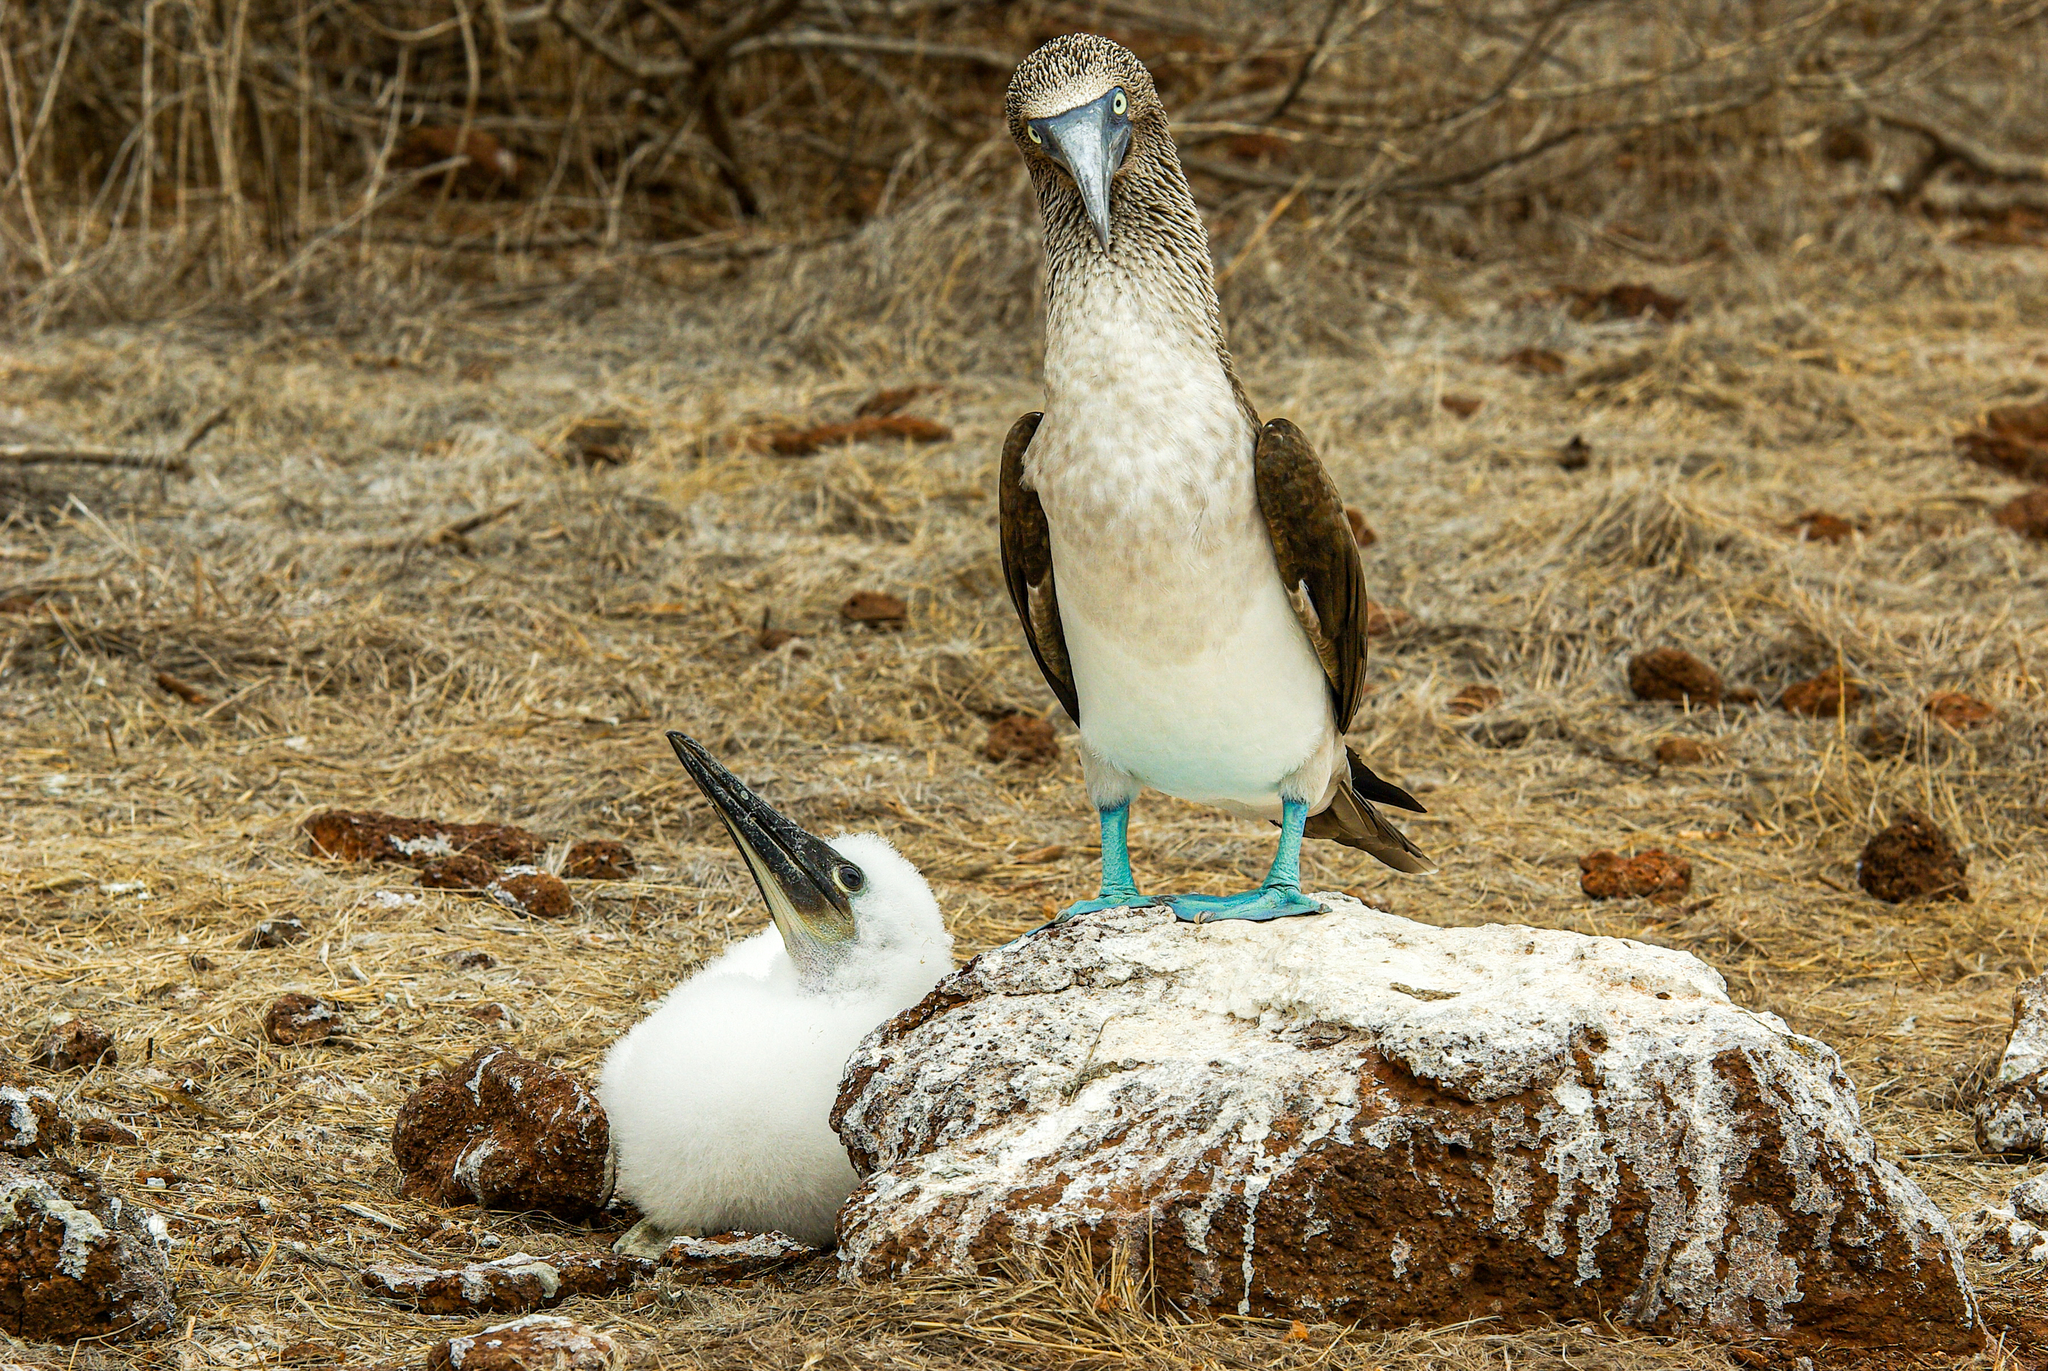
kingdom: Animalia
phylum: Chordata
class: Aves
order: Suliformes
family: Sulidae
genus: Sula
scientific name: Sula nebouxii
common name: Blue-footed booby
